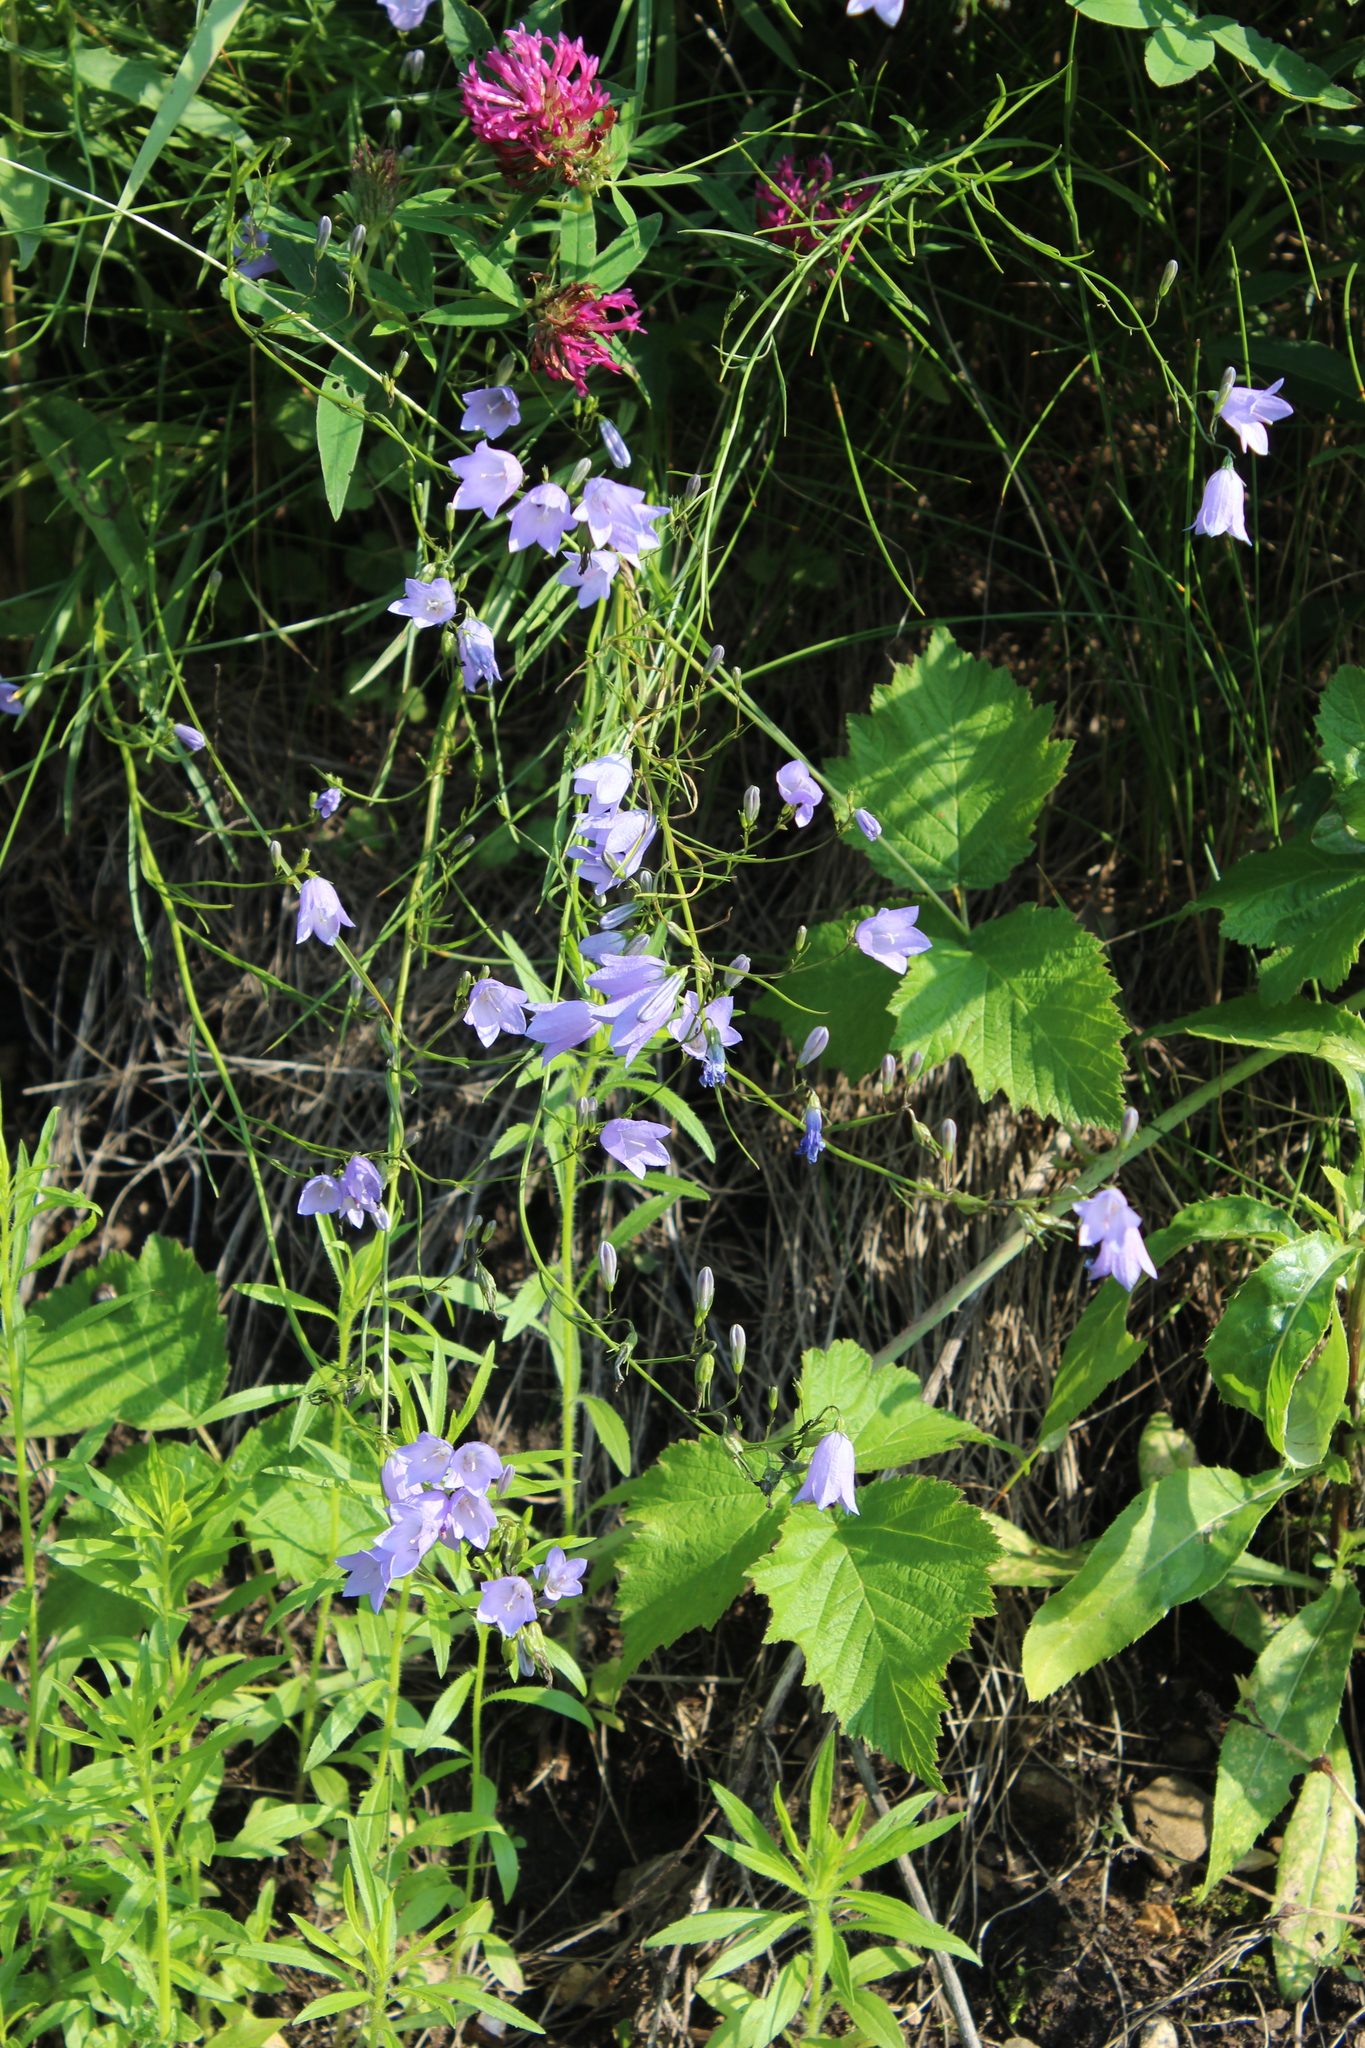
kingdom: Plantae
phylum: Tracheophyta
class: Magnoliopsida
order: Asterales
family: Campanulaceae
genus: Campanula
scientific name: Campanula rotundifolia
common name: Harebell
